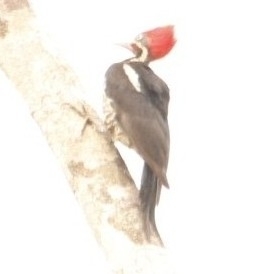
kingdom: Animalia
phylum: Chordata
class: Aves
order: Piciformes
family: Picidae
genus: Dryocopus
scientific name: Dryocopus lineatus
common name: Lineated woodpecker
